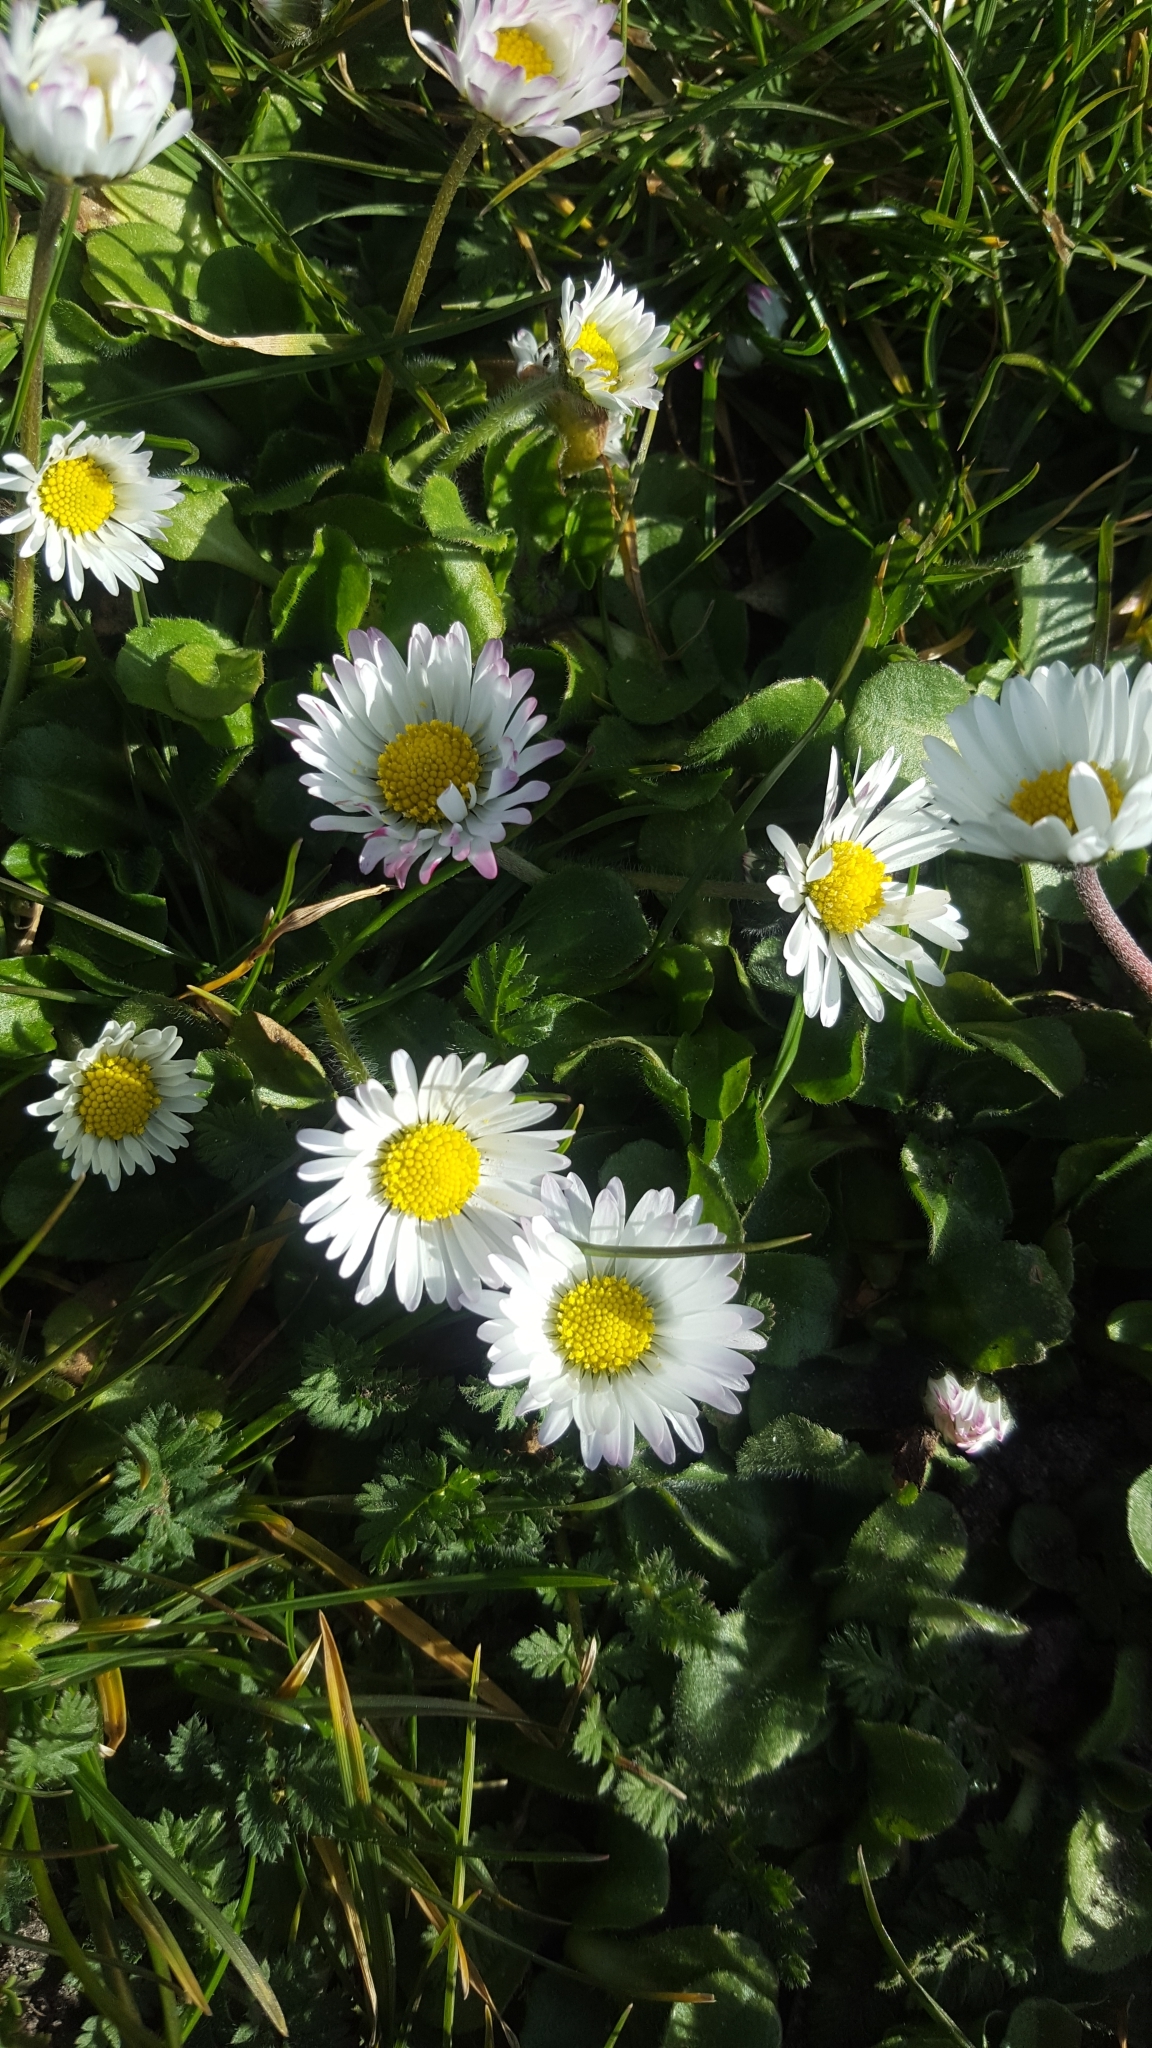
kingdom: Plantae
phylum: Tracheophyta
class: Magnoliopsida
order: Asterales
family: Asteraceae
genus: Bellis
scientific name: Bellis perennis
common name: Lawndaisy
